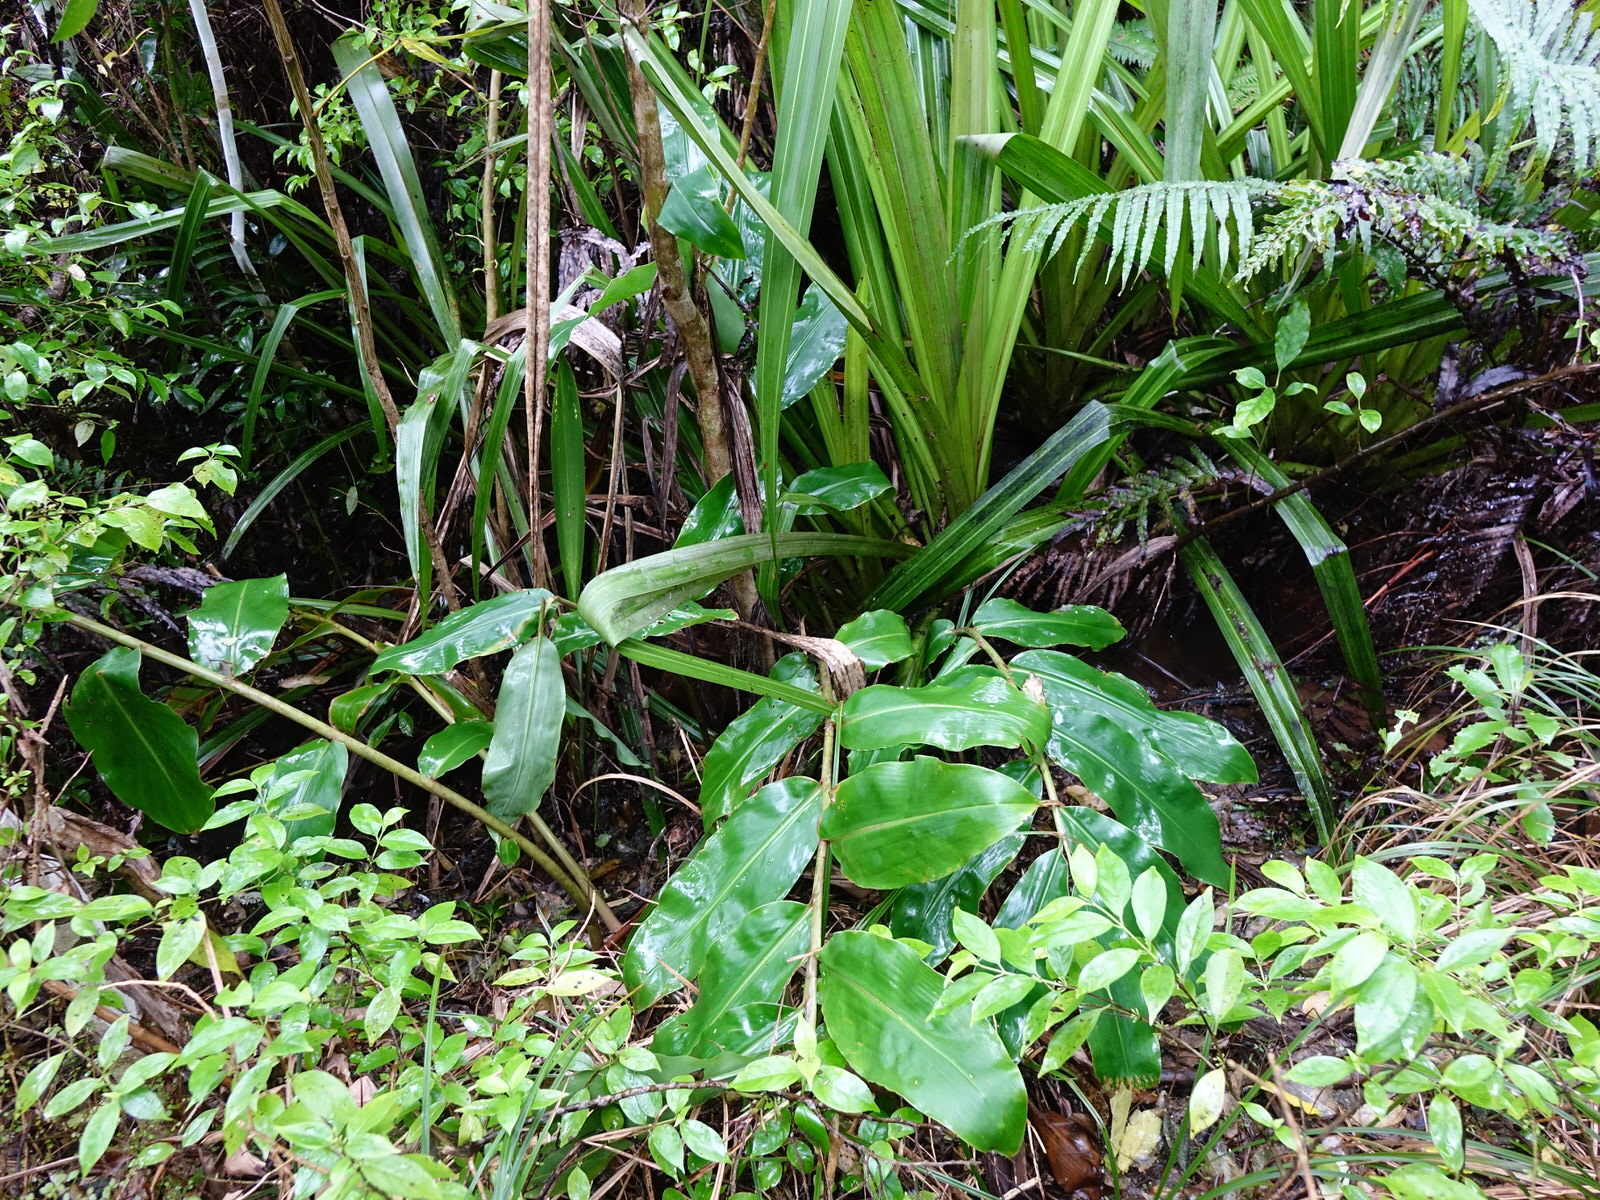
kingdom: Plantae
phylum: Tracheophyta
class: Liliopsida
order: Zingiberales
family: Zingiberaceae
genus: Hedychium
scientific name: Hedychium gardnerianum
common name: Himalayan ginger
